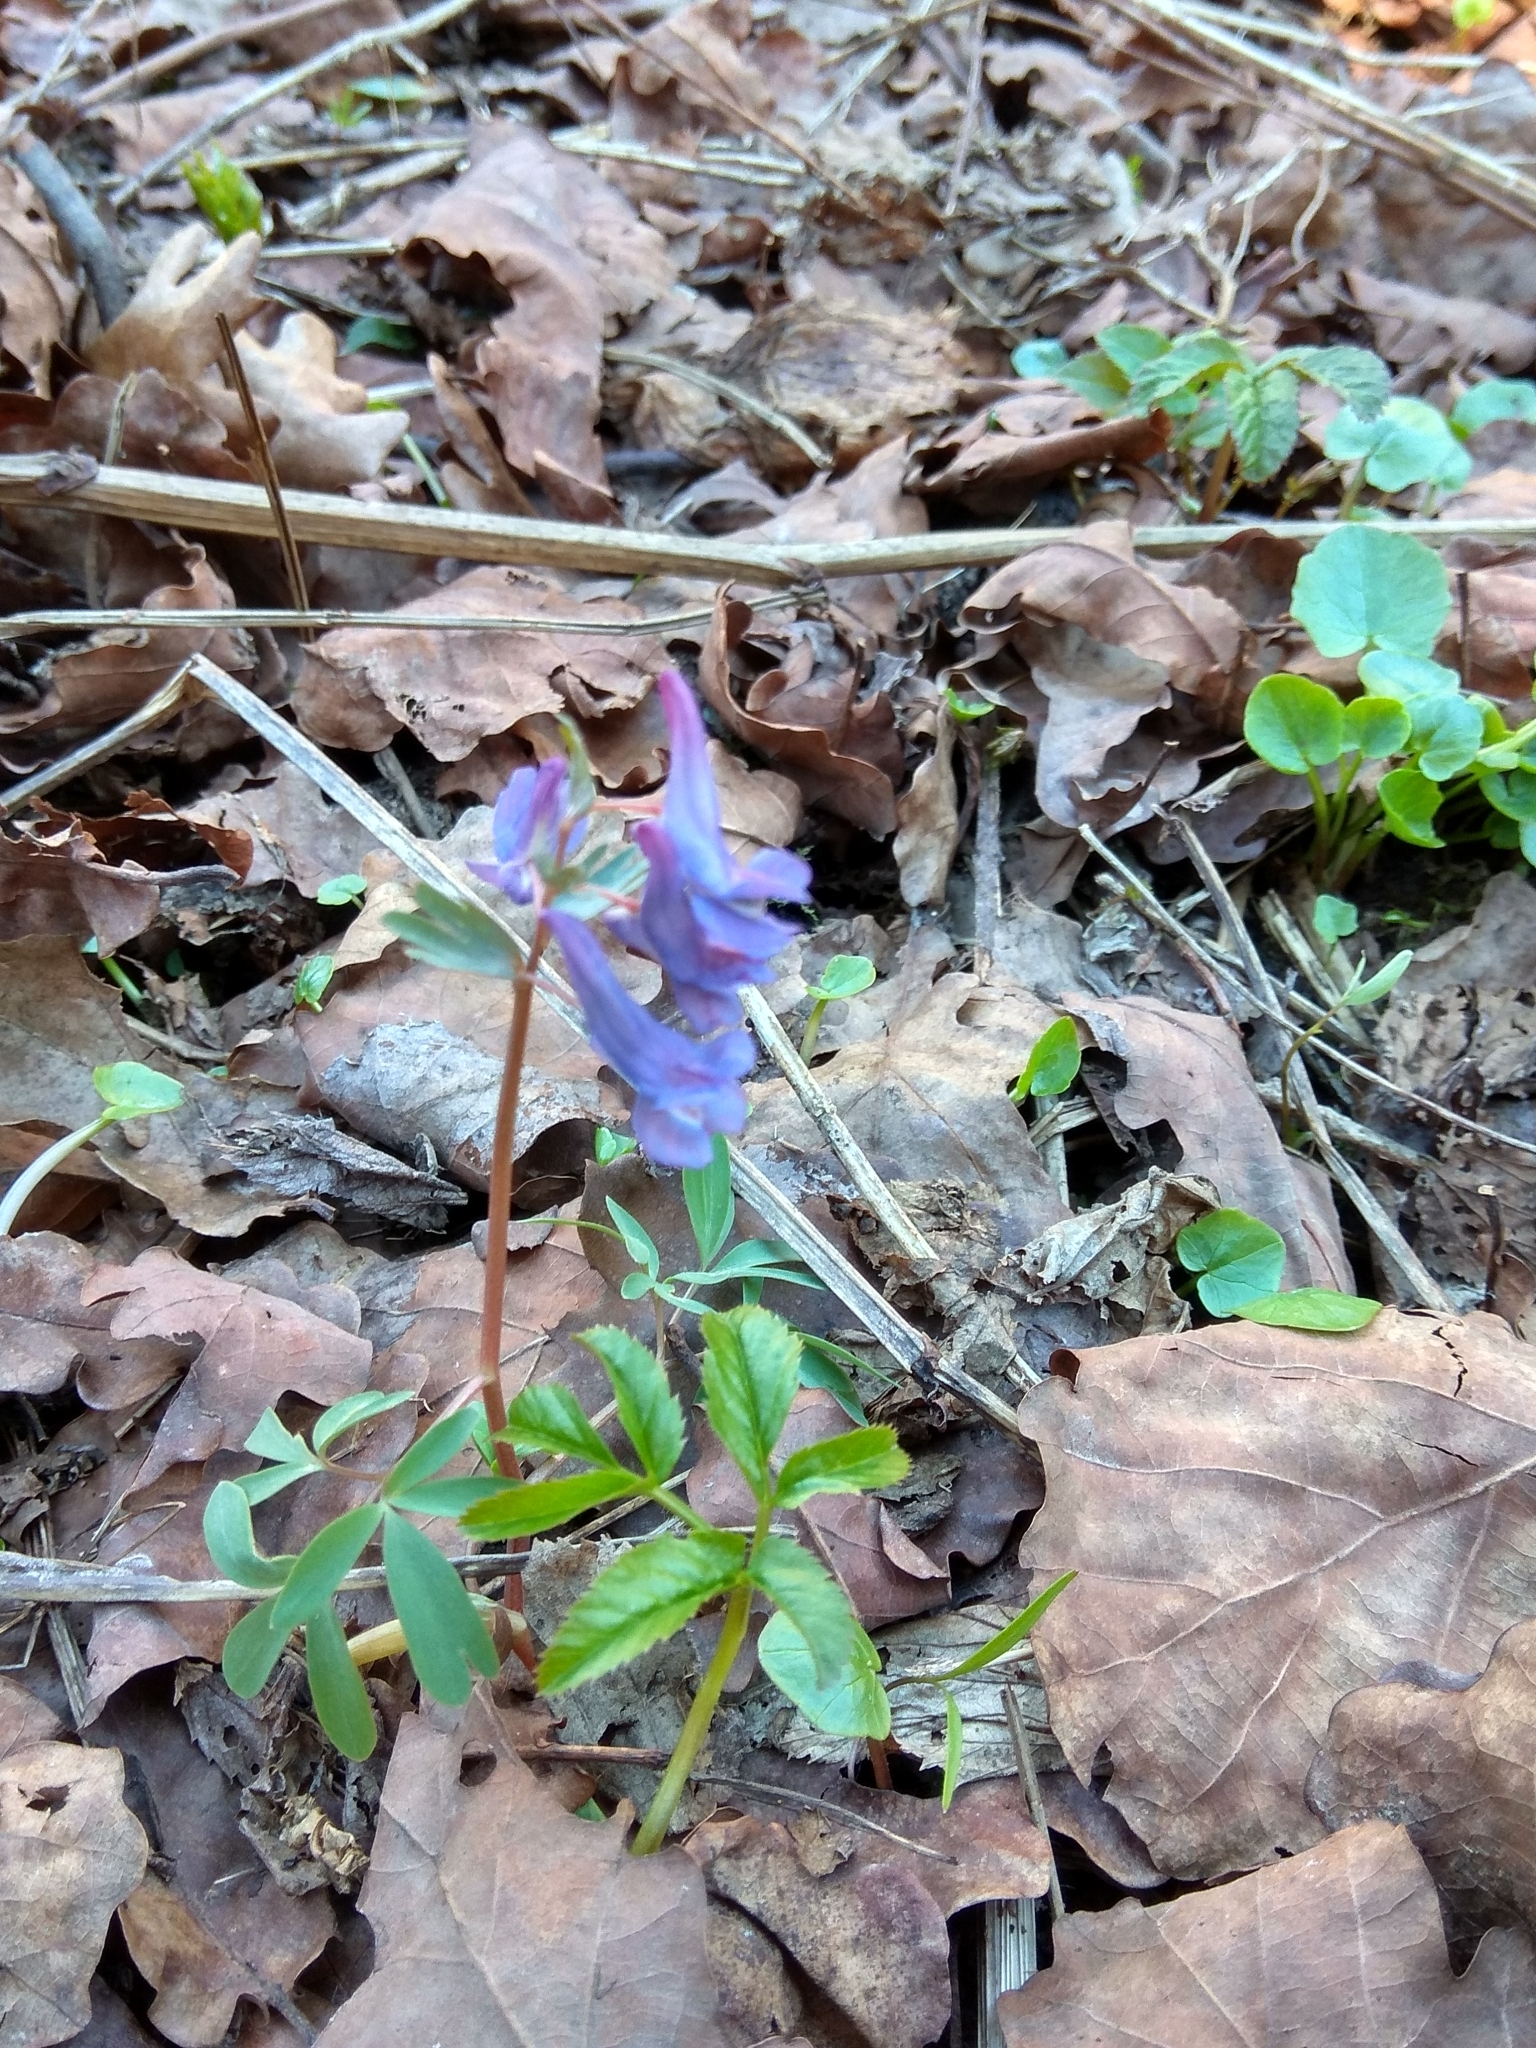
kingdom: Plantae
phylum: Tracheophyta
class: Magnoliopsida
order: Ranunculales
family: Papaveraceae
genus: Corydalis
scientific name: Corydalis solida
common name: Bird-in-a-bush
